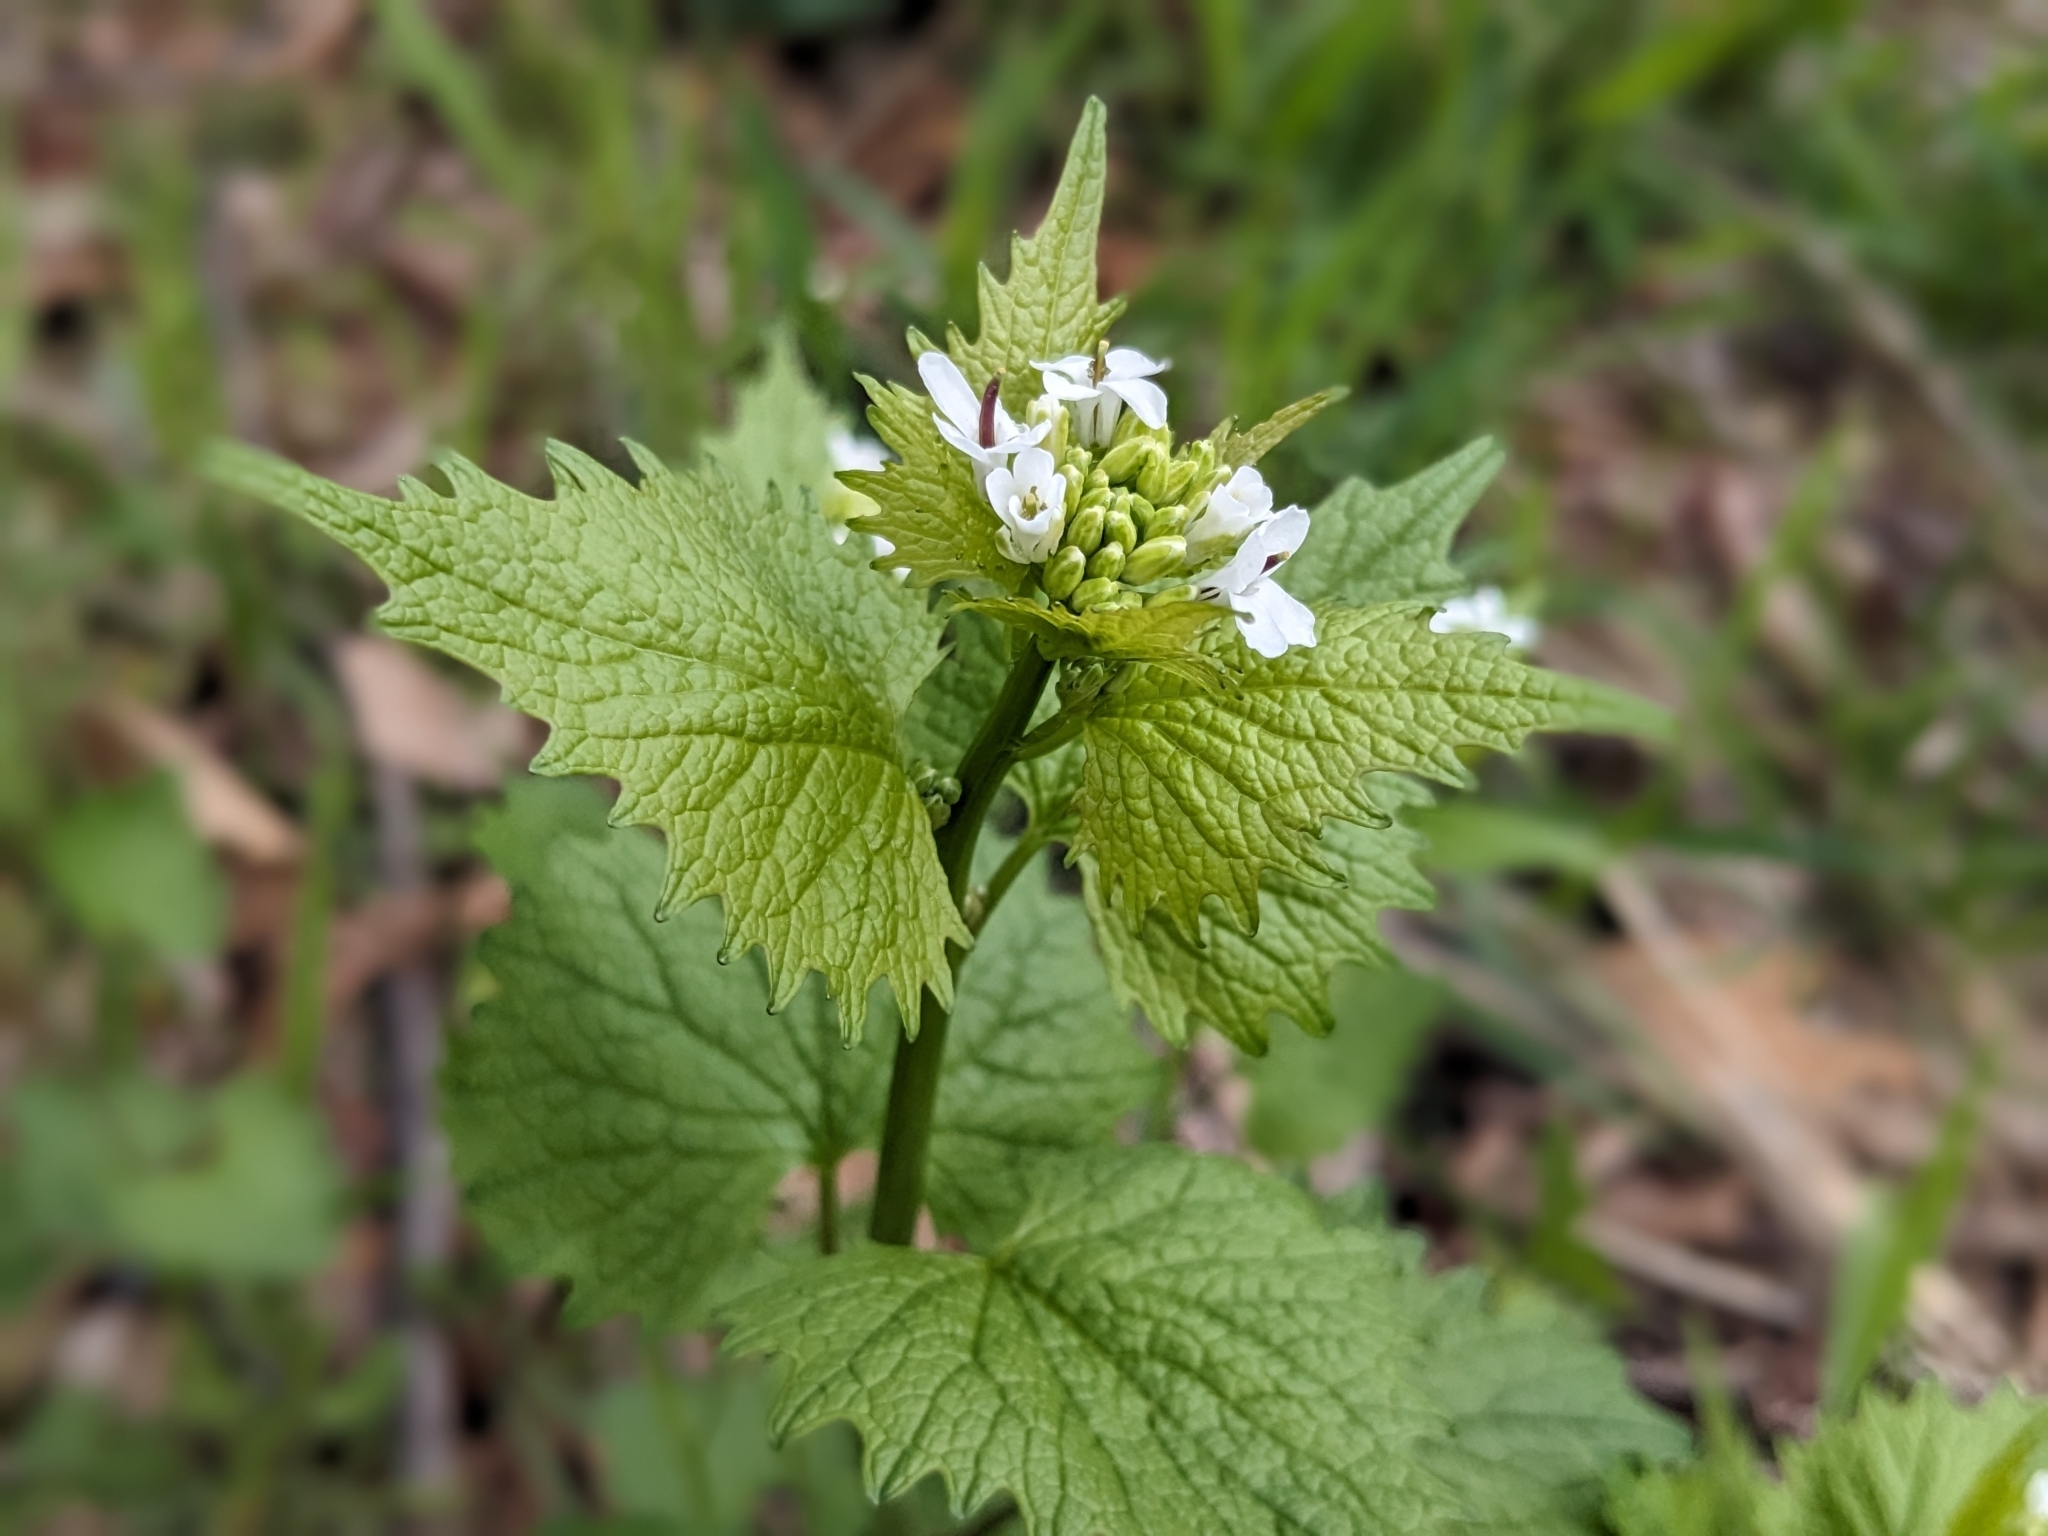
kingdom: Plantae
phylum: Tracheophyta
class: Magnoliopsida
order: Brassicales
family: Brassicaceae
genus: Alliaria
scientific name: Alliaria petiolata
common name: Garlic mustard
